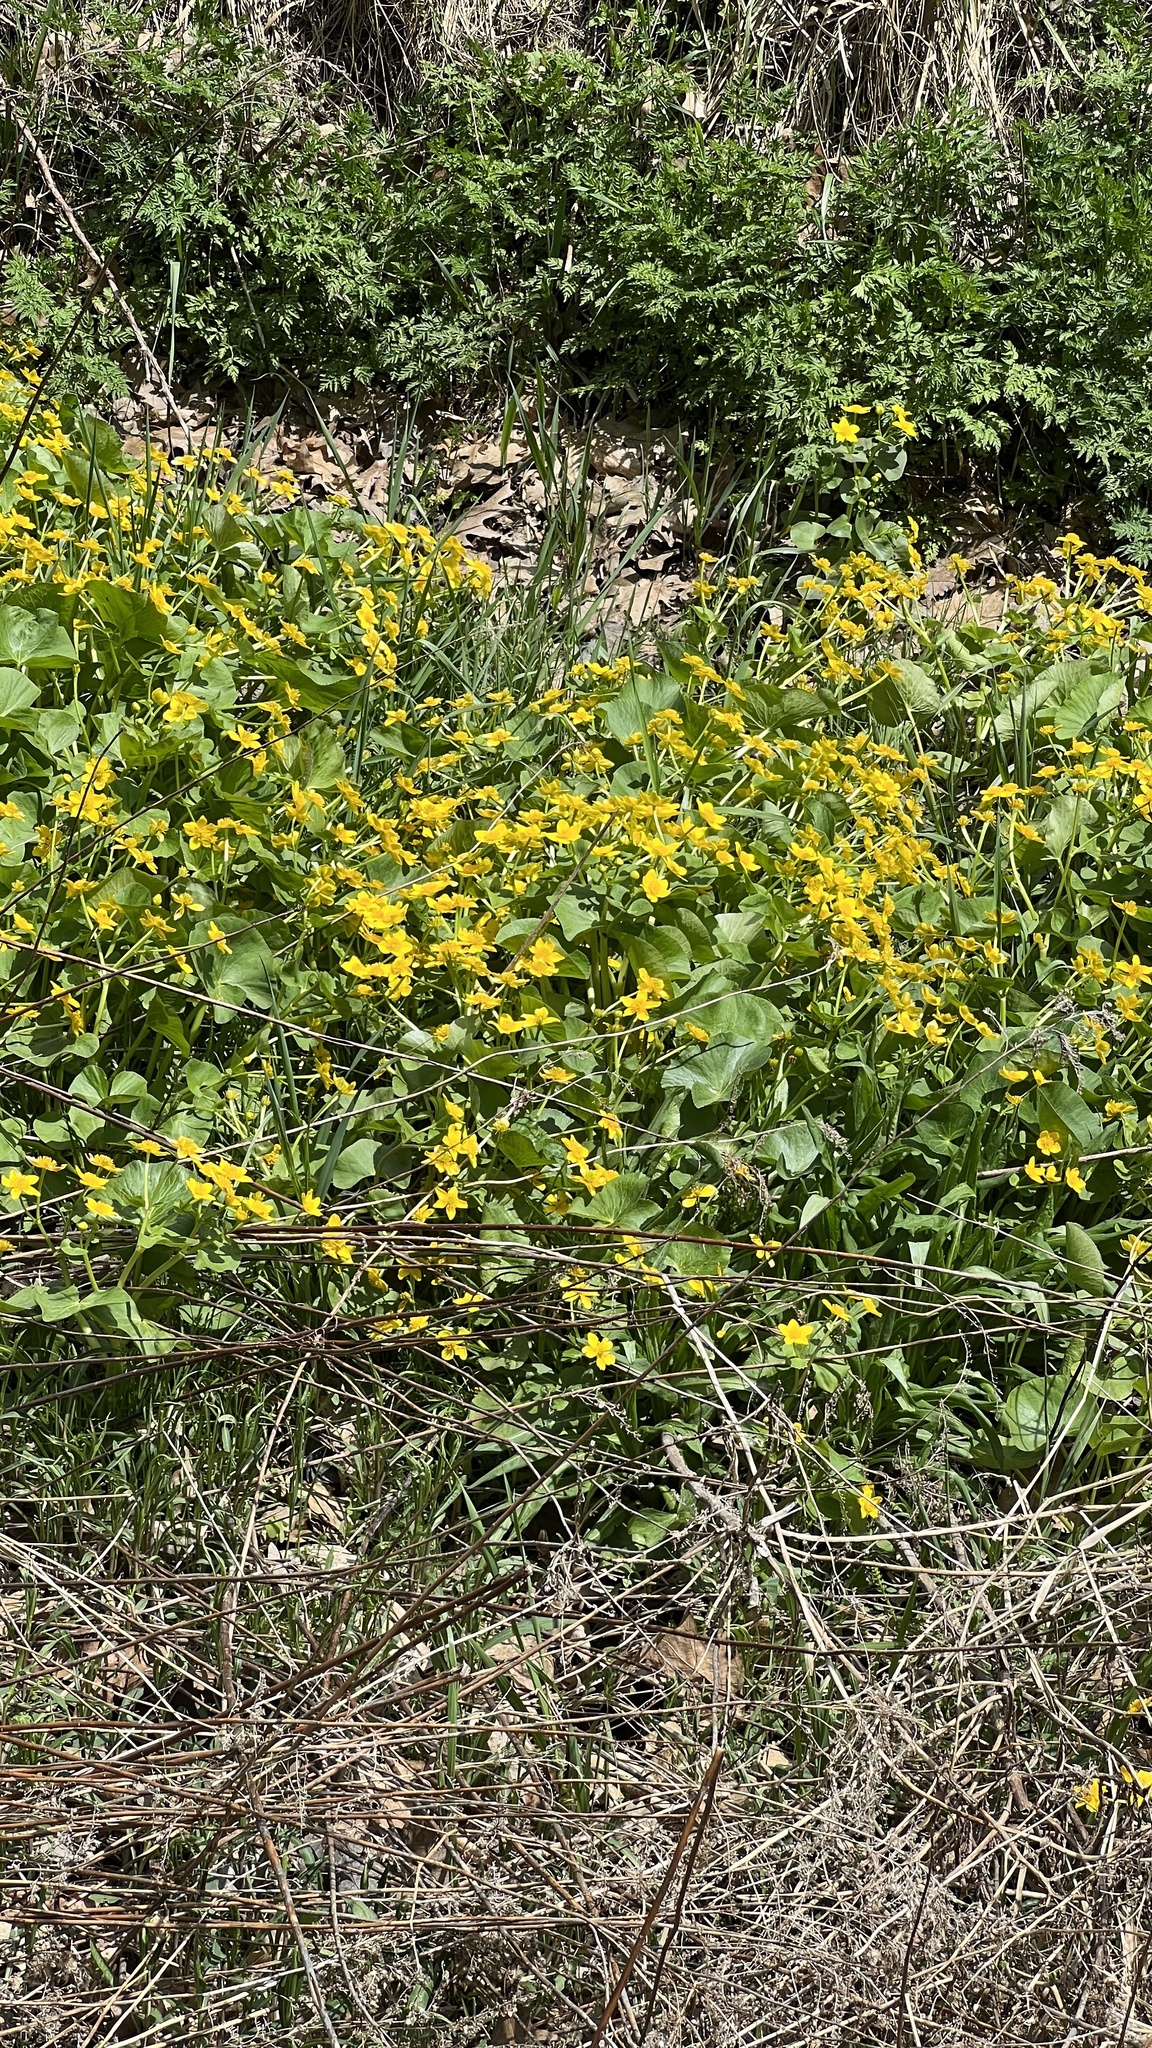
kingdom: Plantae
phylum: Tracheophyta
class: Magnoliopsida
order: Ranunculales
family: Ranunculaceae
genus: Caltha
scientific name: Caltha palustris
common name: Marsh marigold
